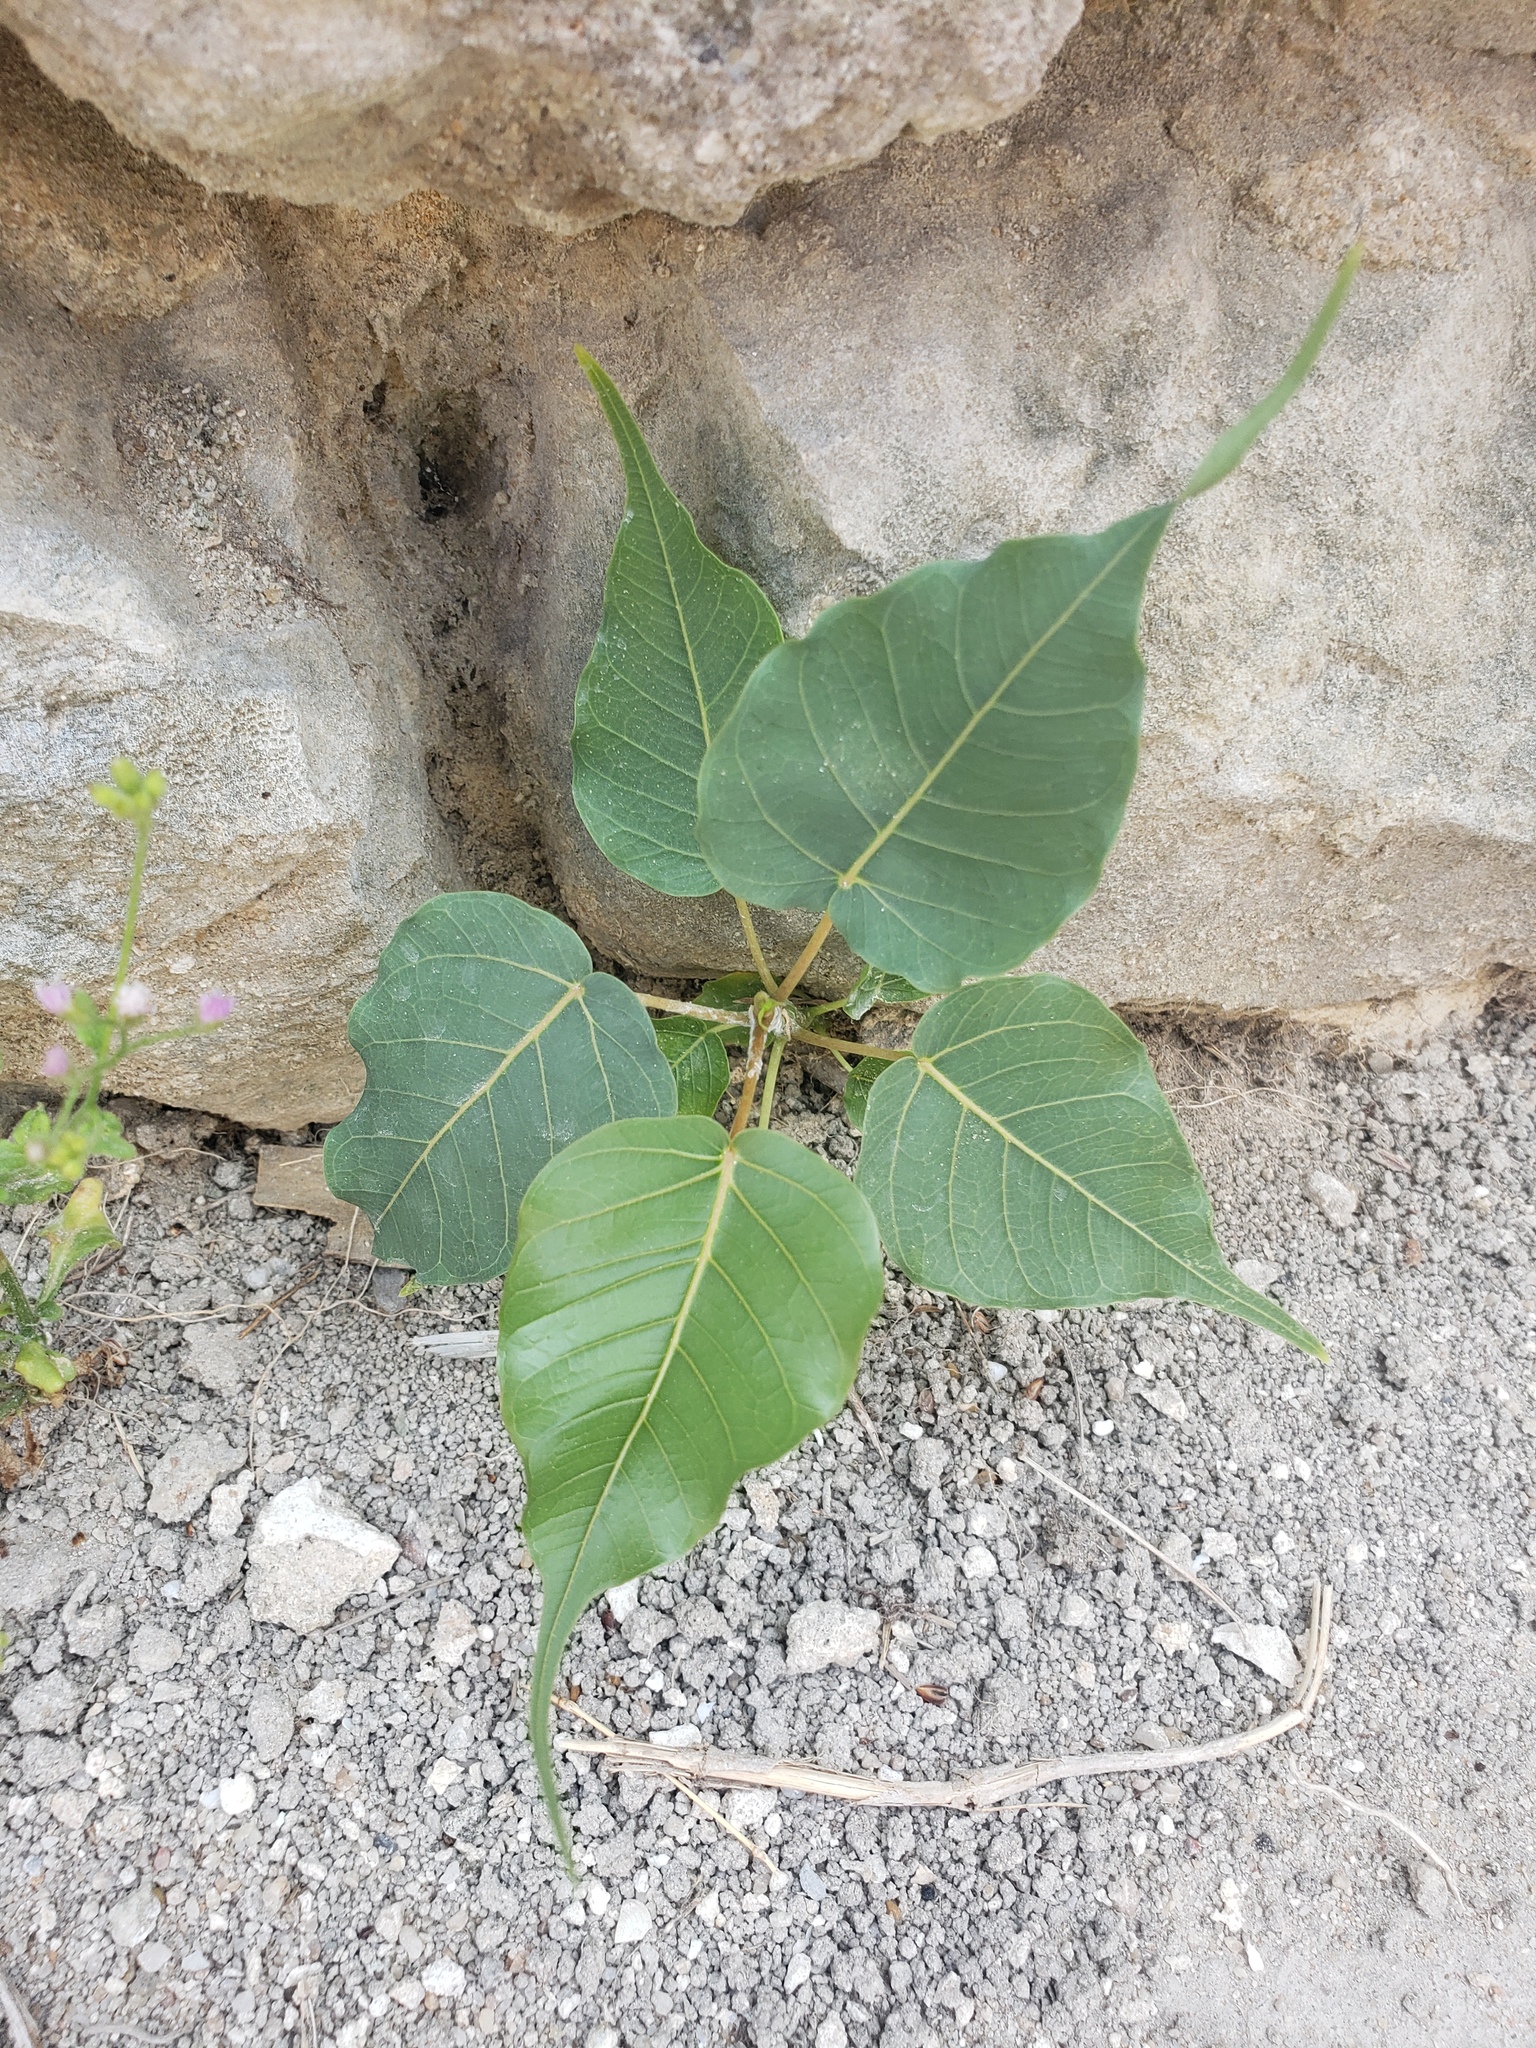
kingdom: Plantae
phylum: Tracheophyta
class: Magnoliopsida
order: Rosales
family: Moraceae
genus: Ficus
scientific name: Ficus religiosa
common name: Bodhi tree
